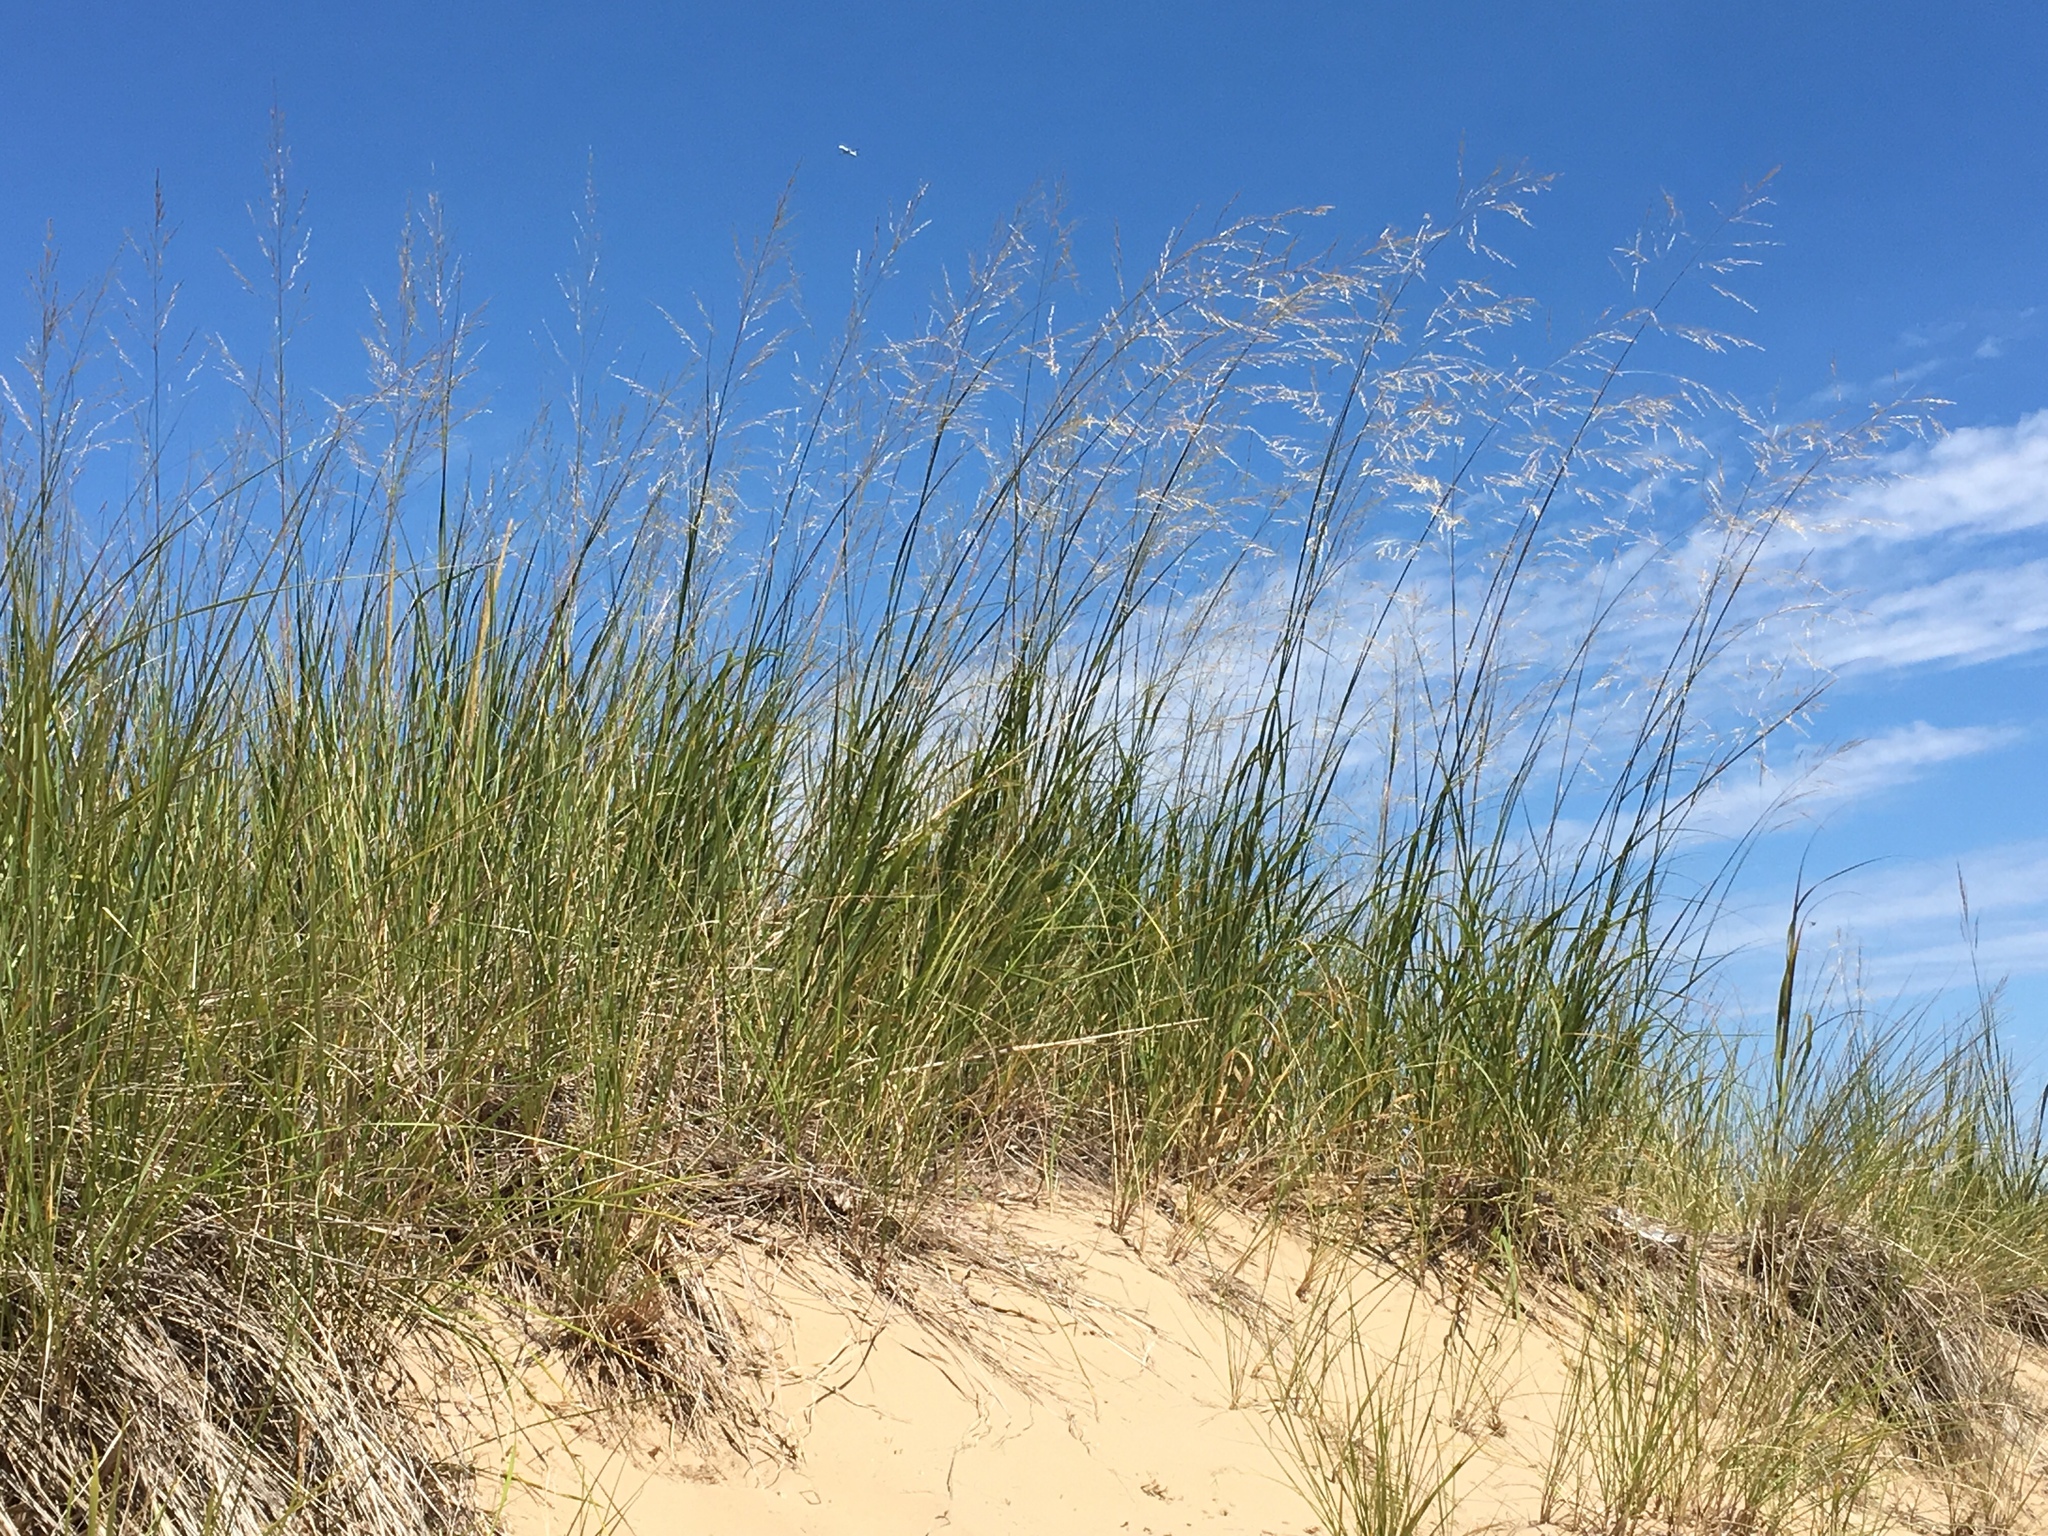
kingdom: Plantae
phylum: Tracheophyta
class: Liliopsida
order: Poales
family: Poaceae
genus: Sporobolus
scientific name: Sporobolus rigidus
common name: Prairie sandreed
